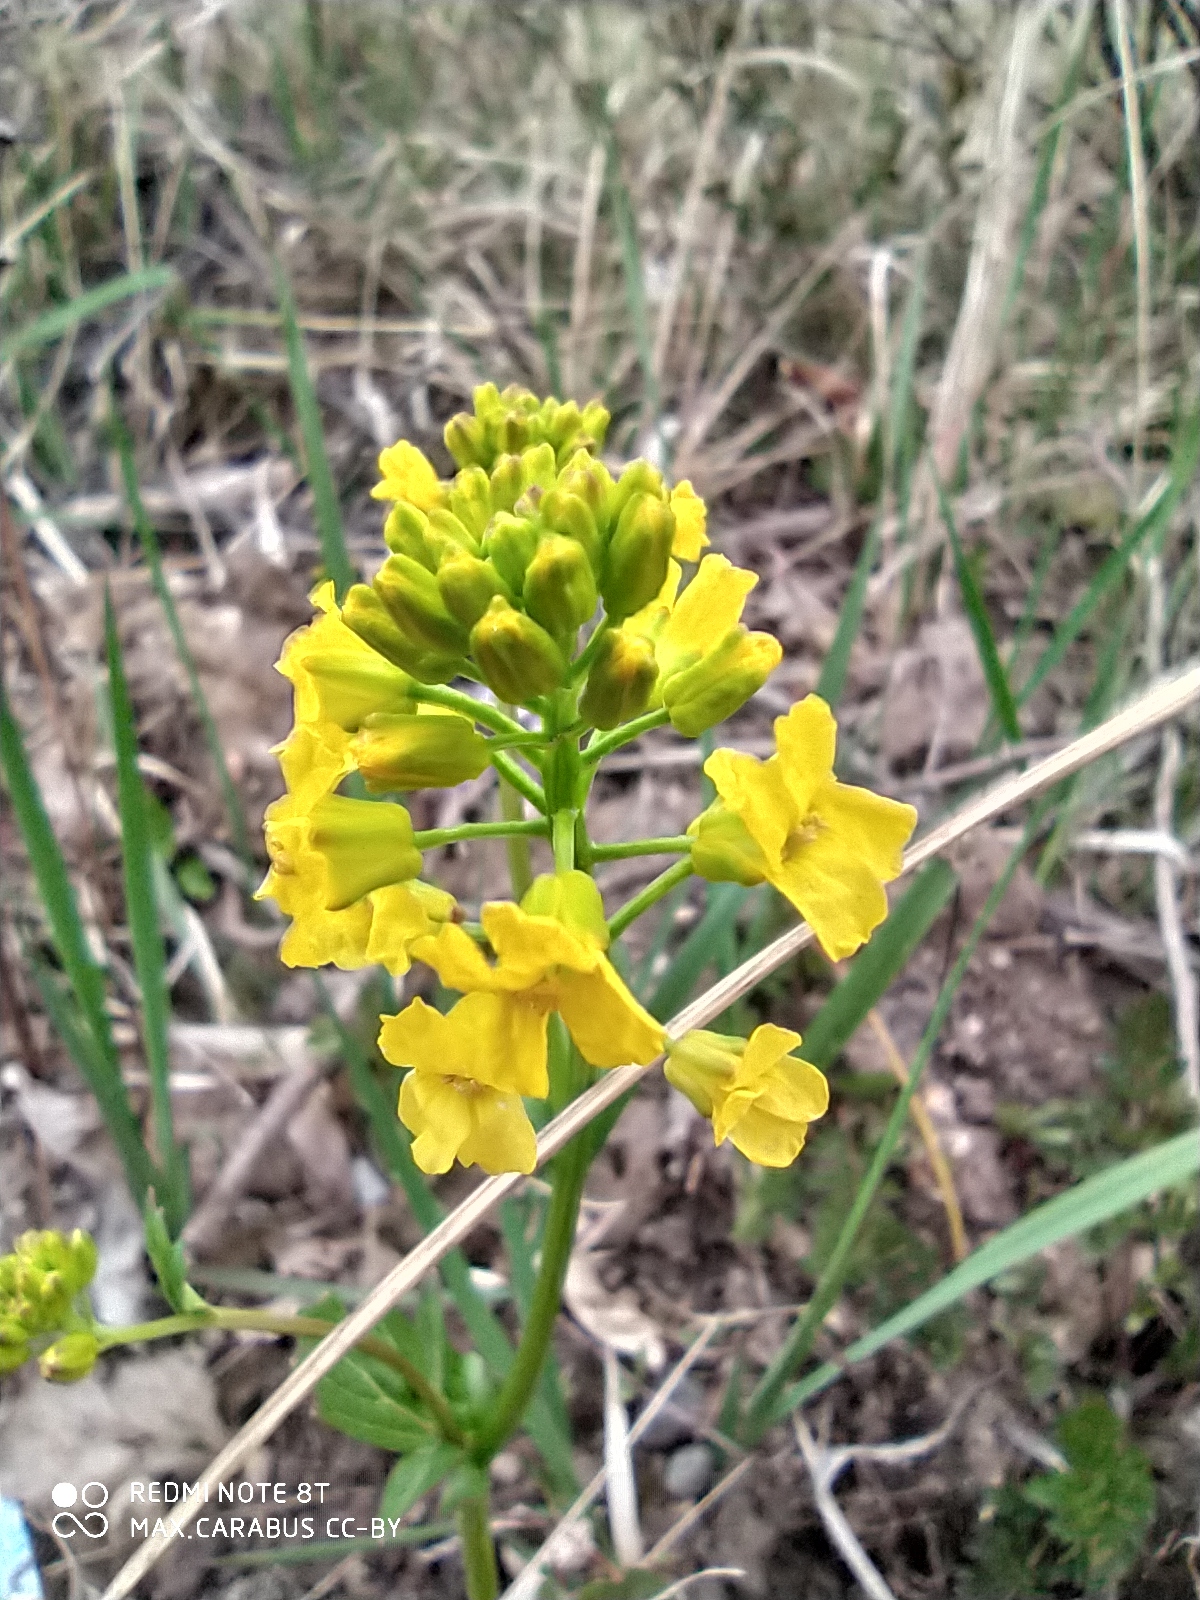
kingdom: Plantae
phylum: Tracheophyta
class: Magnoliopsida
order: Brassicales
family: Brassicaceae
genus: Barbarea
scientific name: Barbarea vulgaris
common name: Cressy-greens
